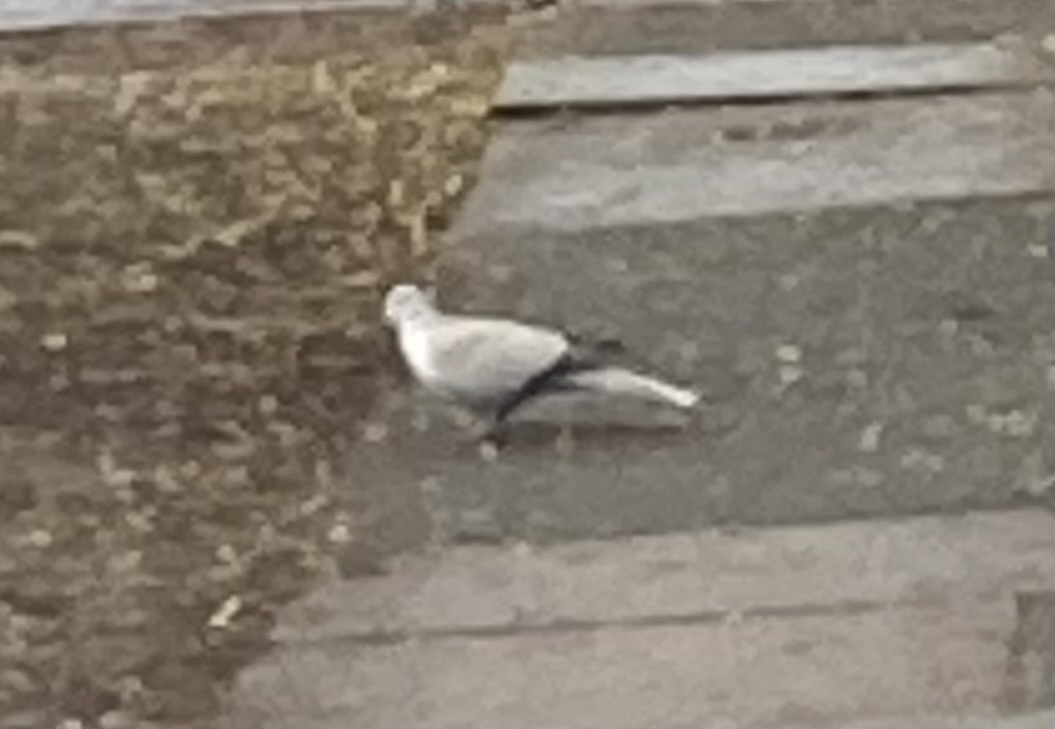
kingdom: Animalia
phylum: Chordata
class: Aves
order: Columbiformes
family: Columbidae
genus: Streptopelia
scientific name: Streptopelia decaocto
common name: Eurasian collared dove
